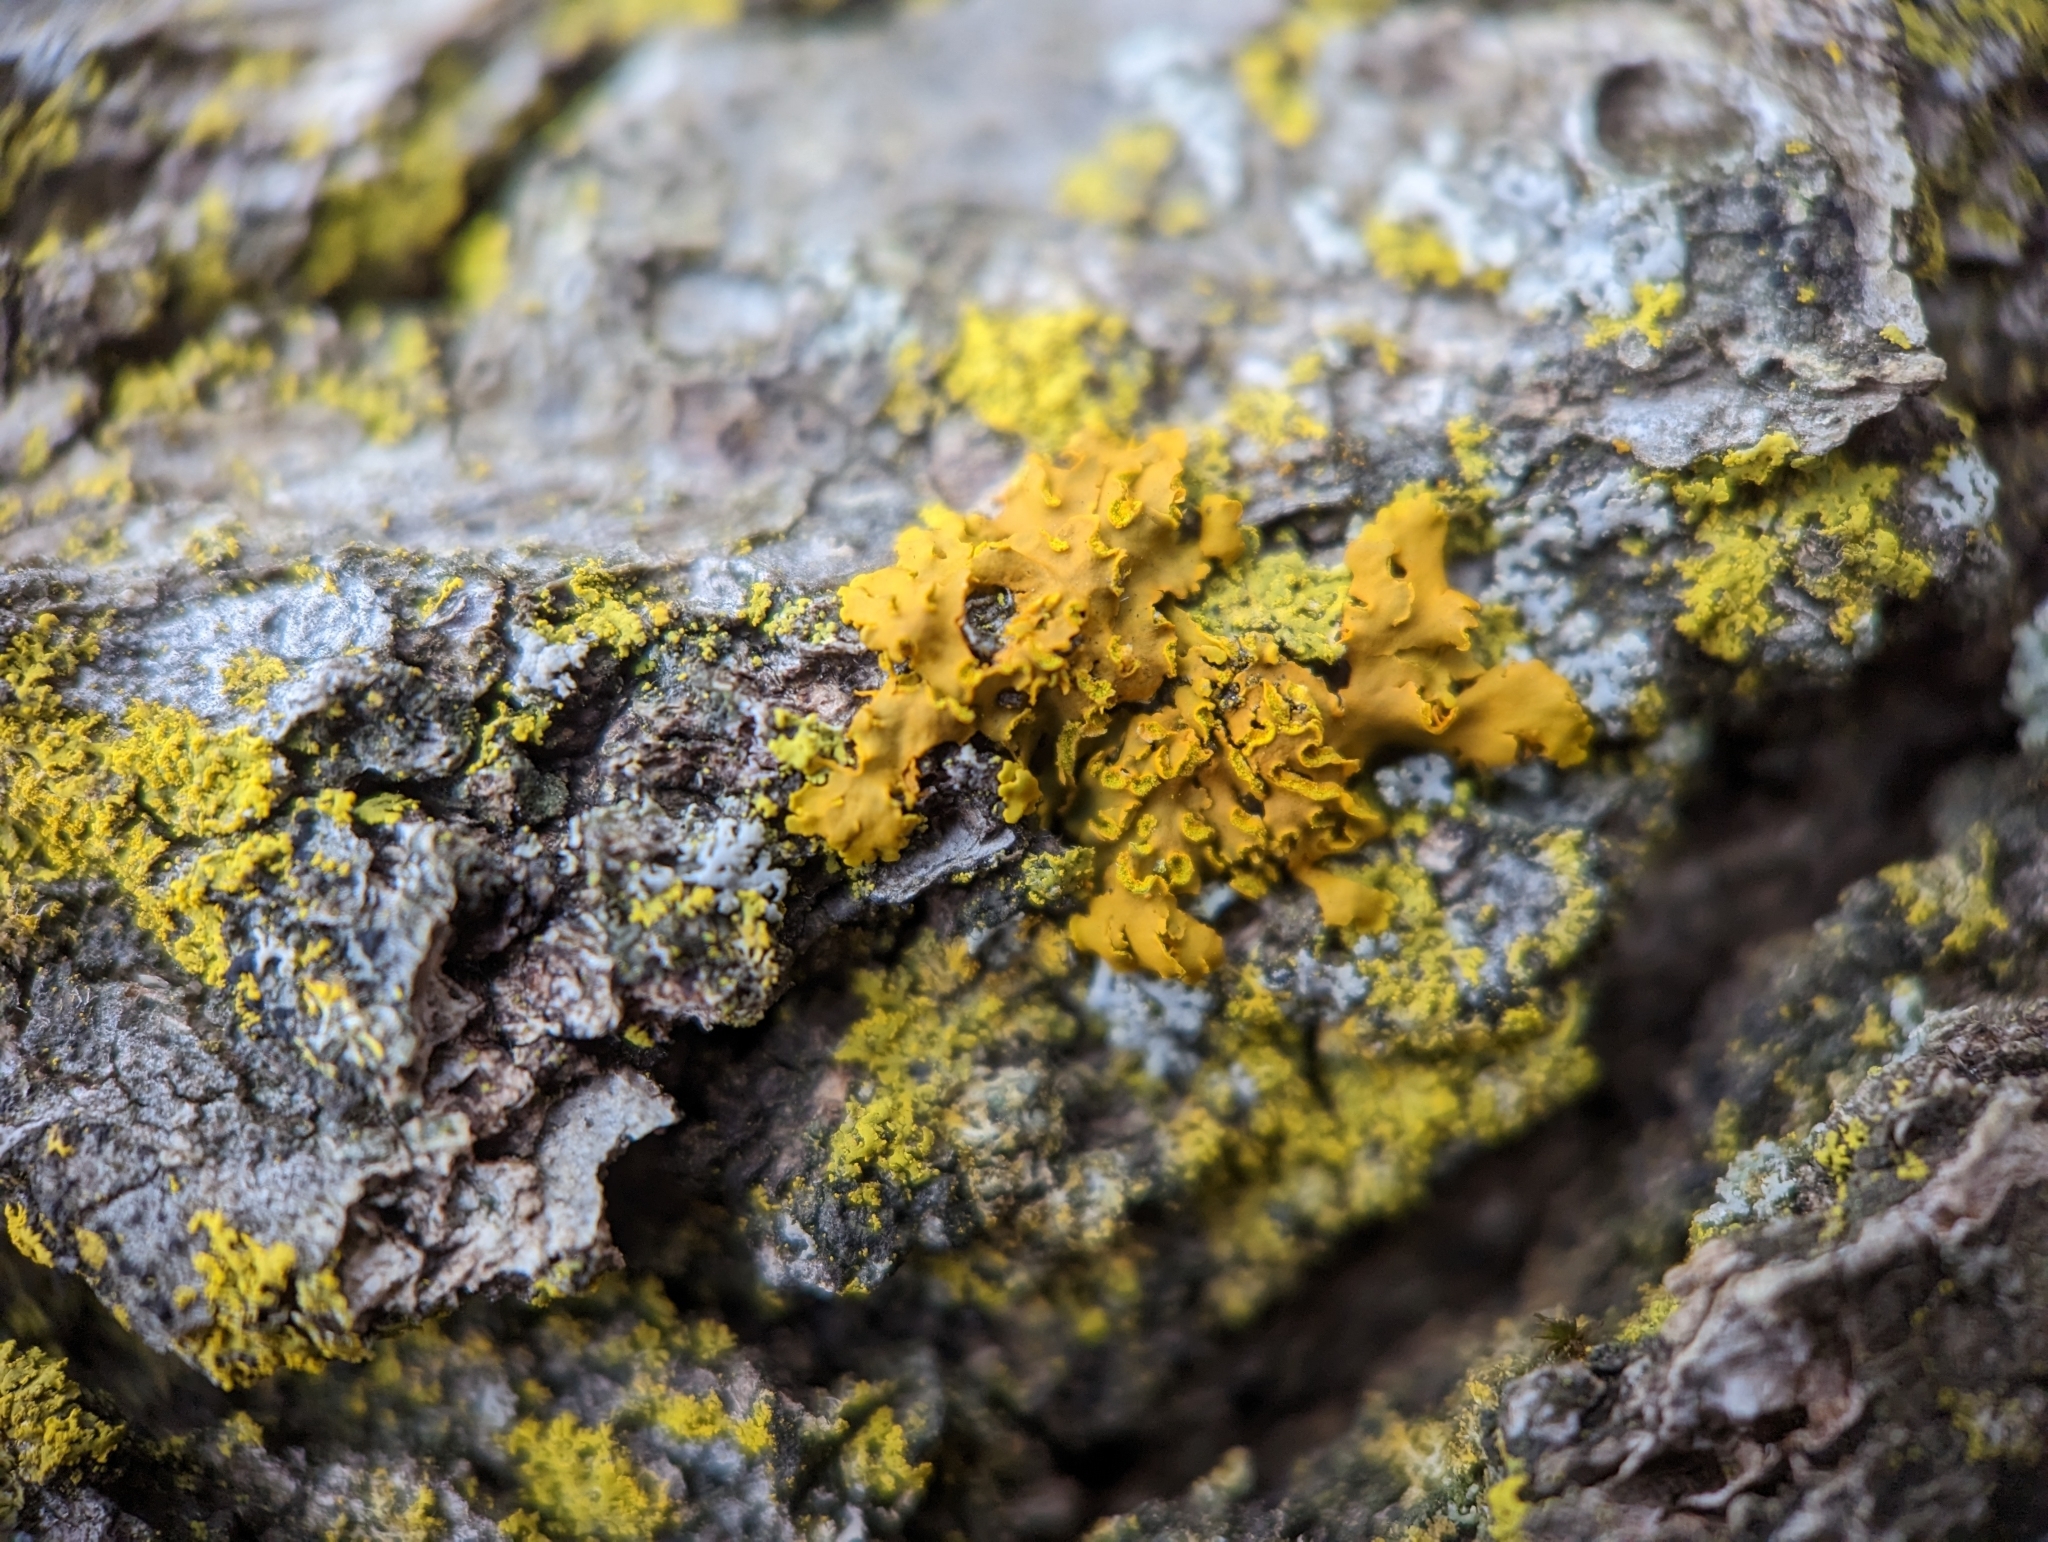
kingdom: Fungi
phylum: Ascomycota
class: Lecanoromycetes
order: Teloschistales
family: Teloschistaceae
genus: Oxneria
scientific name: Oxneria fallax
